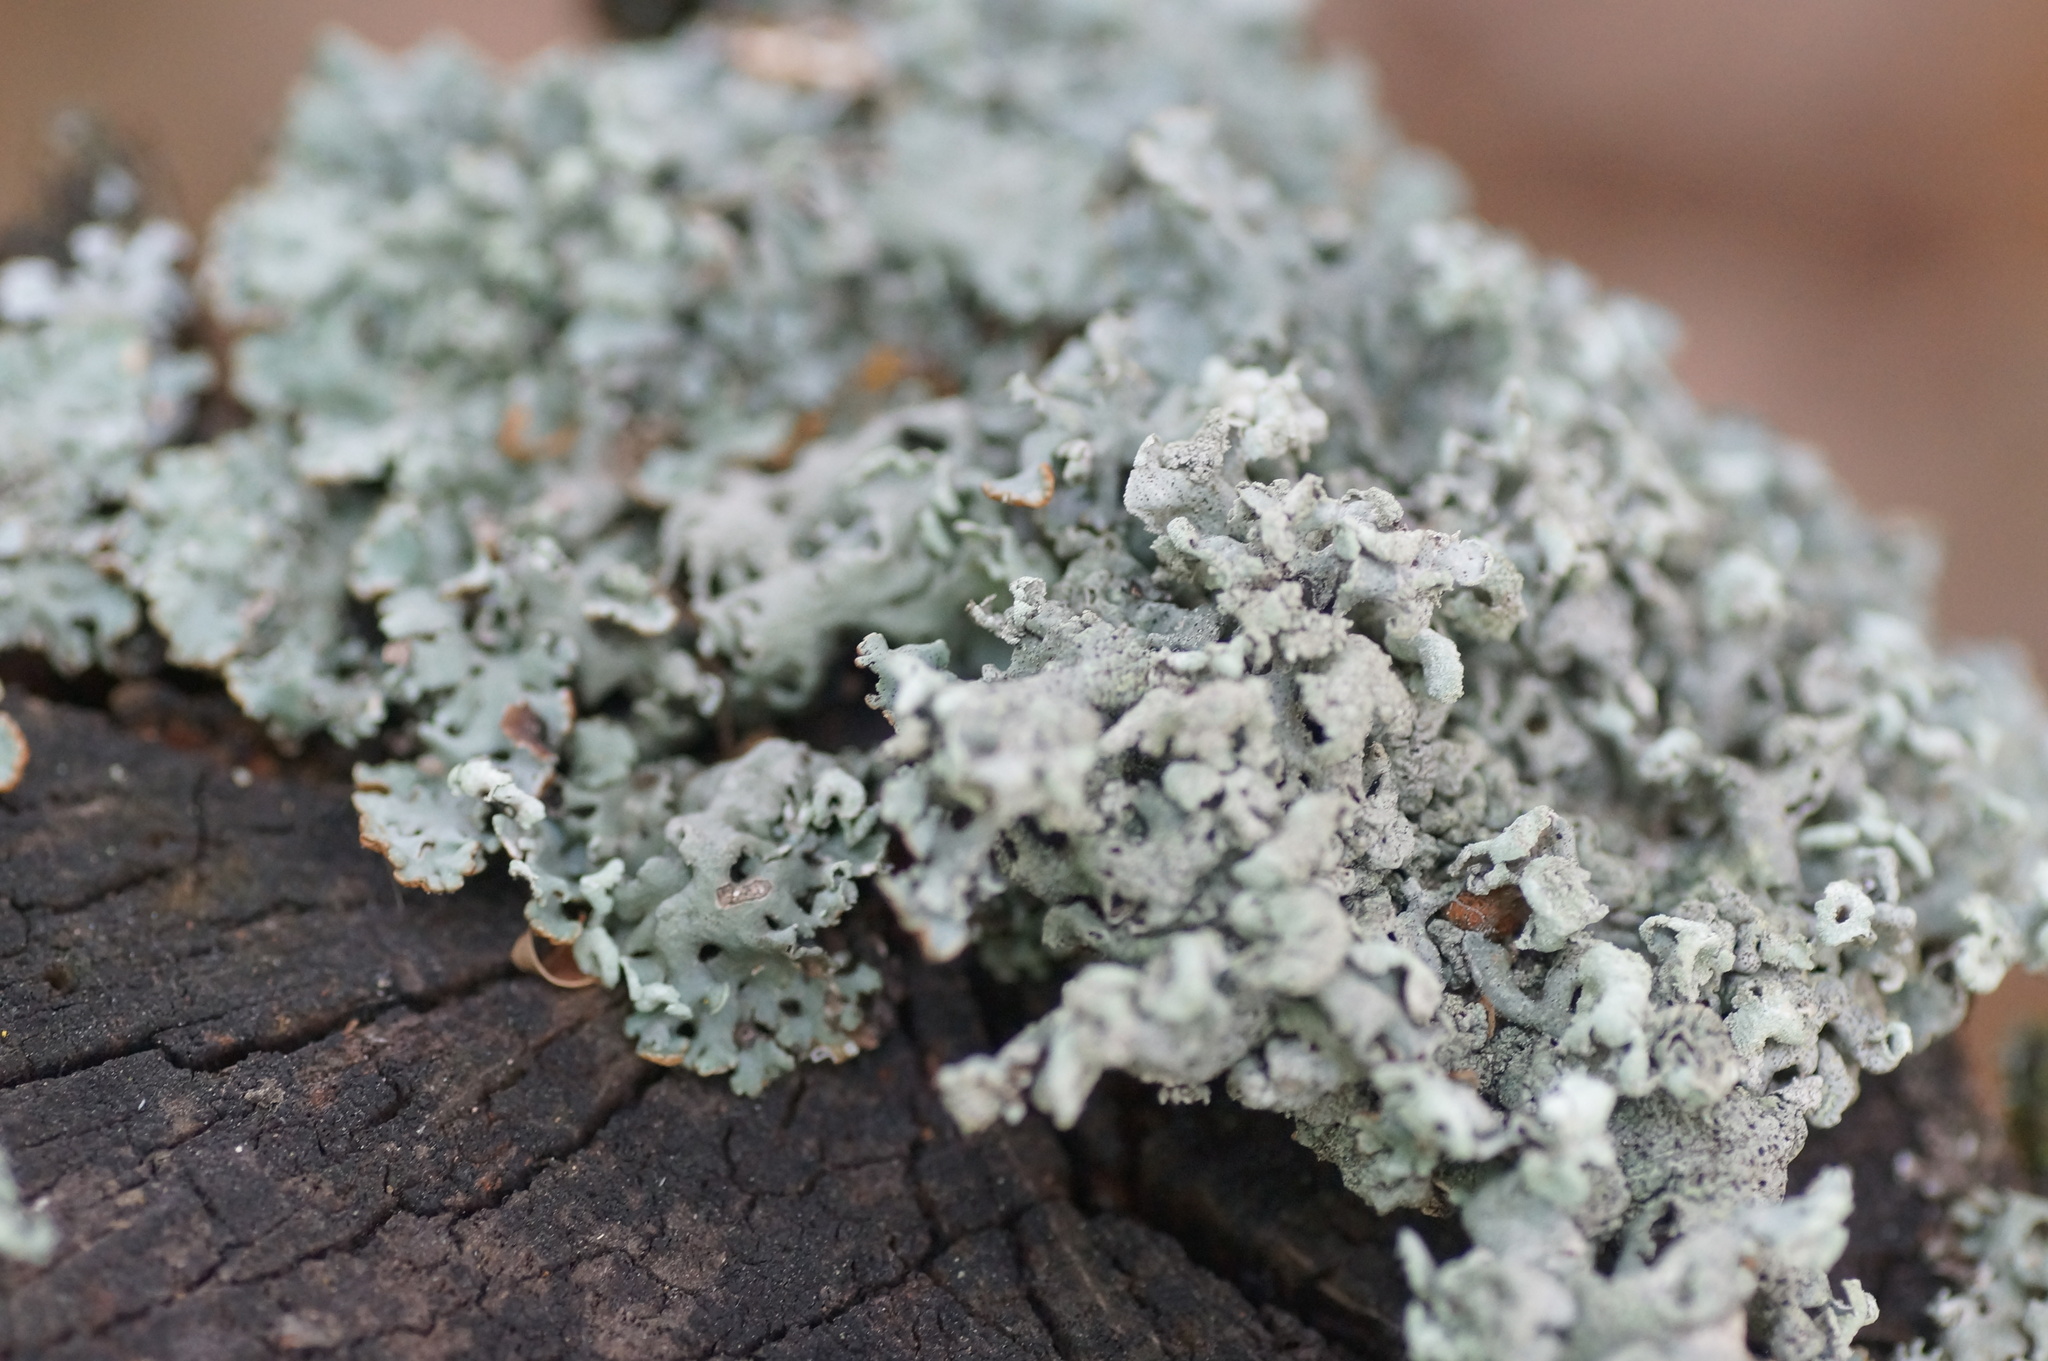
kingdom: Fungi
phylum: Ascomycota
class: Lecanoromycetes
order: Lecanorales
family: Parmeliaceae
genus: Hypogymnia
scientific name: Hypogymnia physodes
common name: Dark crottle
